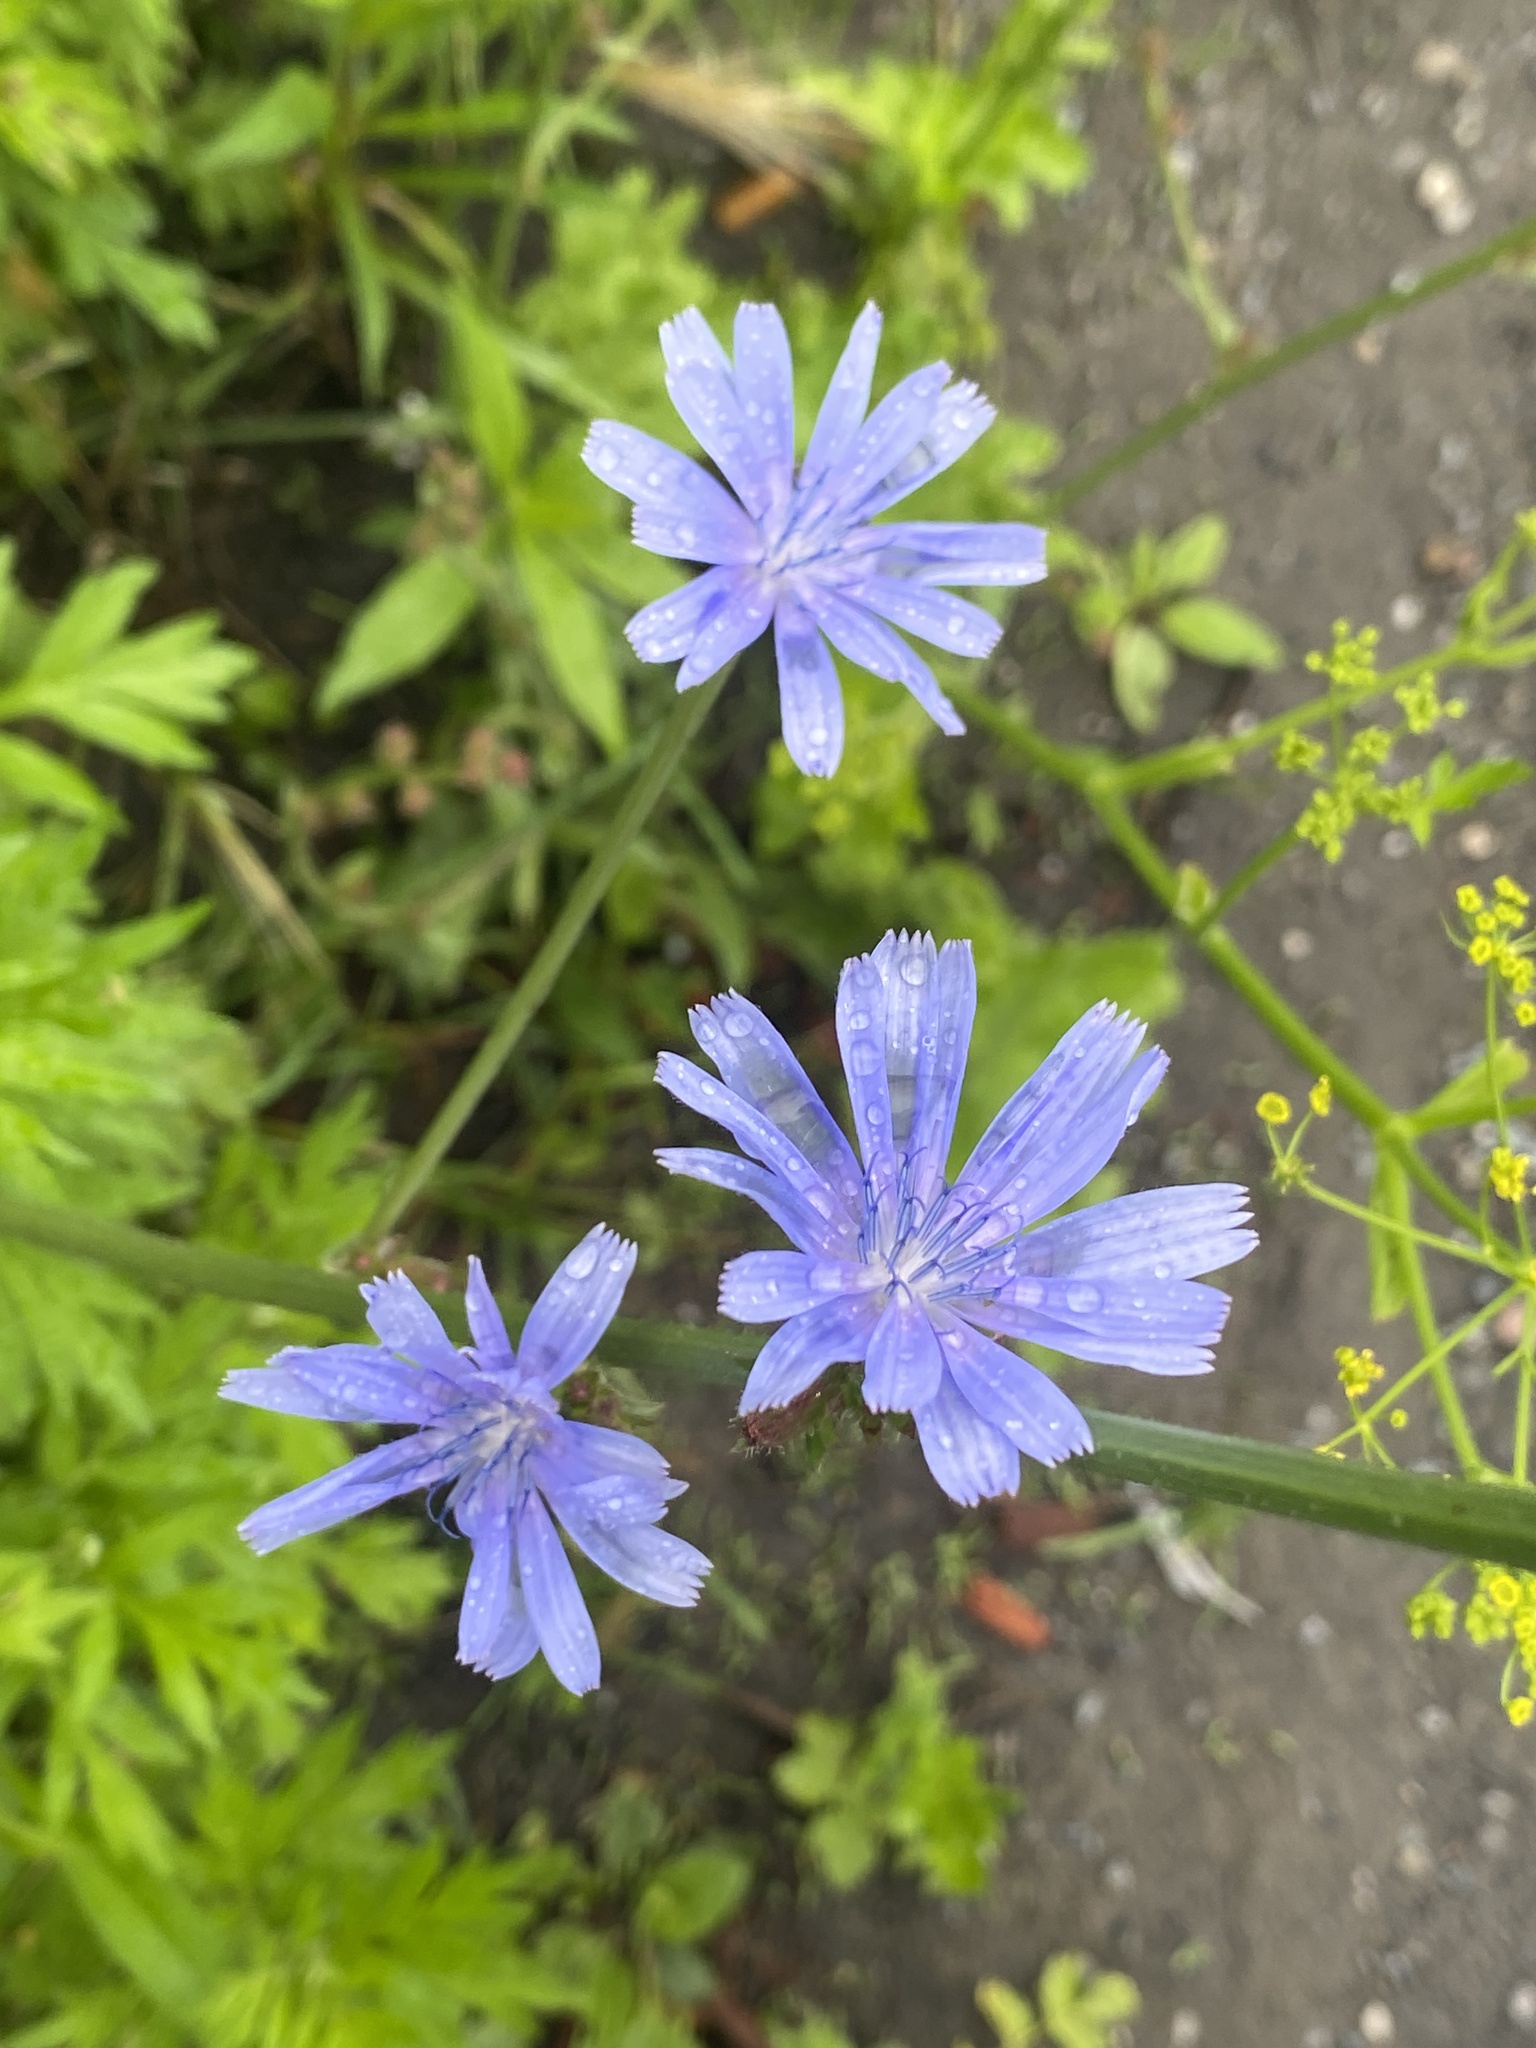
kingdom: Plantae
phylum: Tracheophyta
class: Magnoliopsida
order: Asterales
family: Asteraceae
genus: Cichorium
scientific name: Cichorium intybus
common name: Chicory
